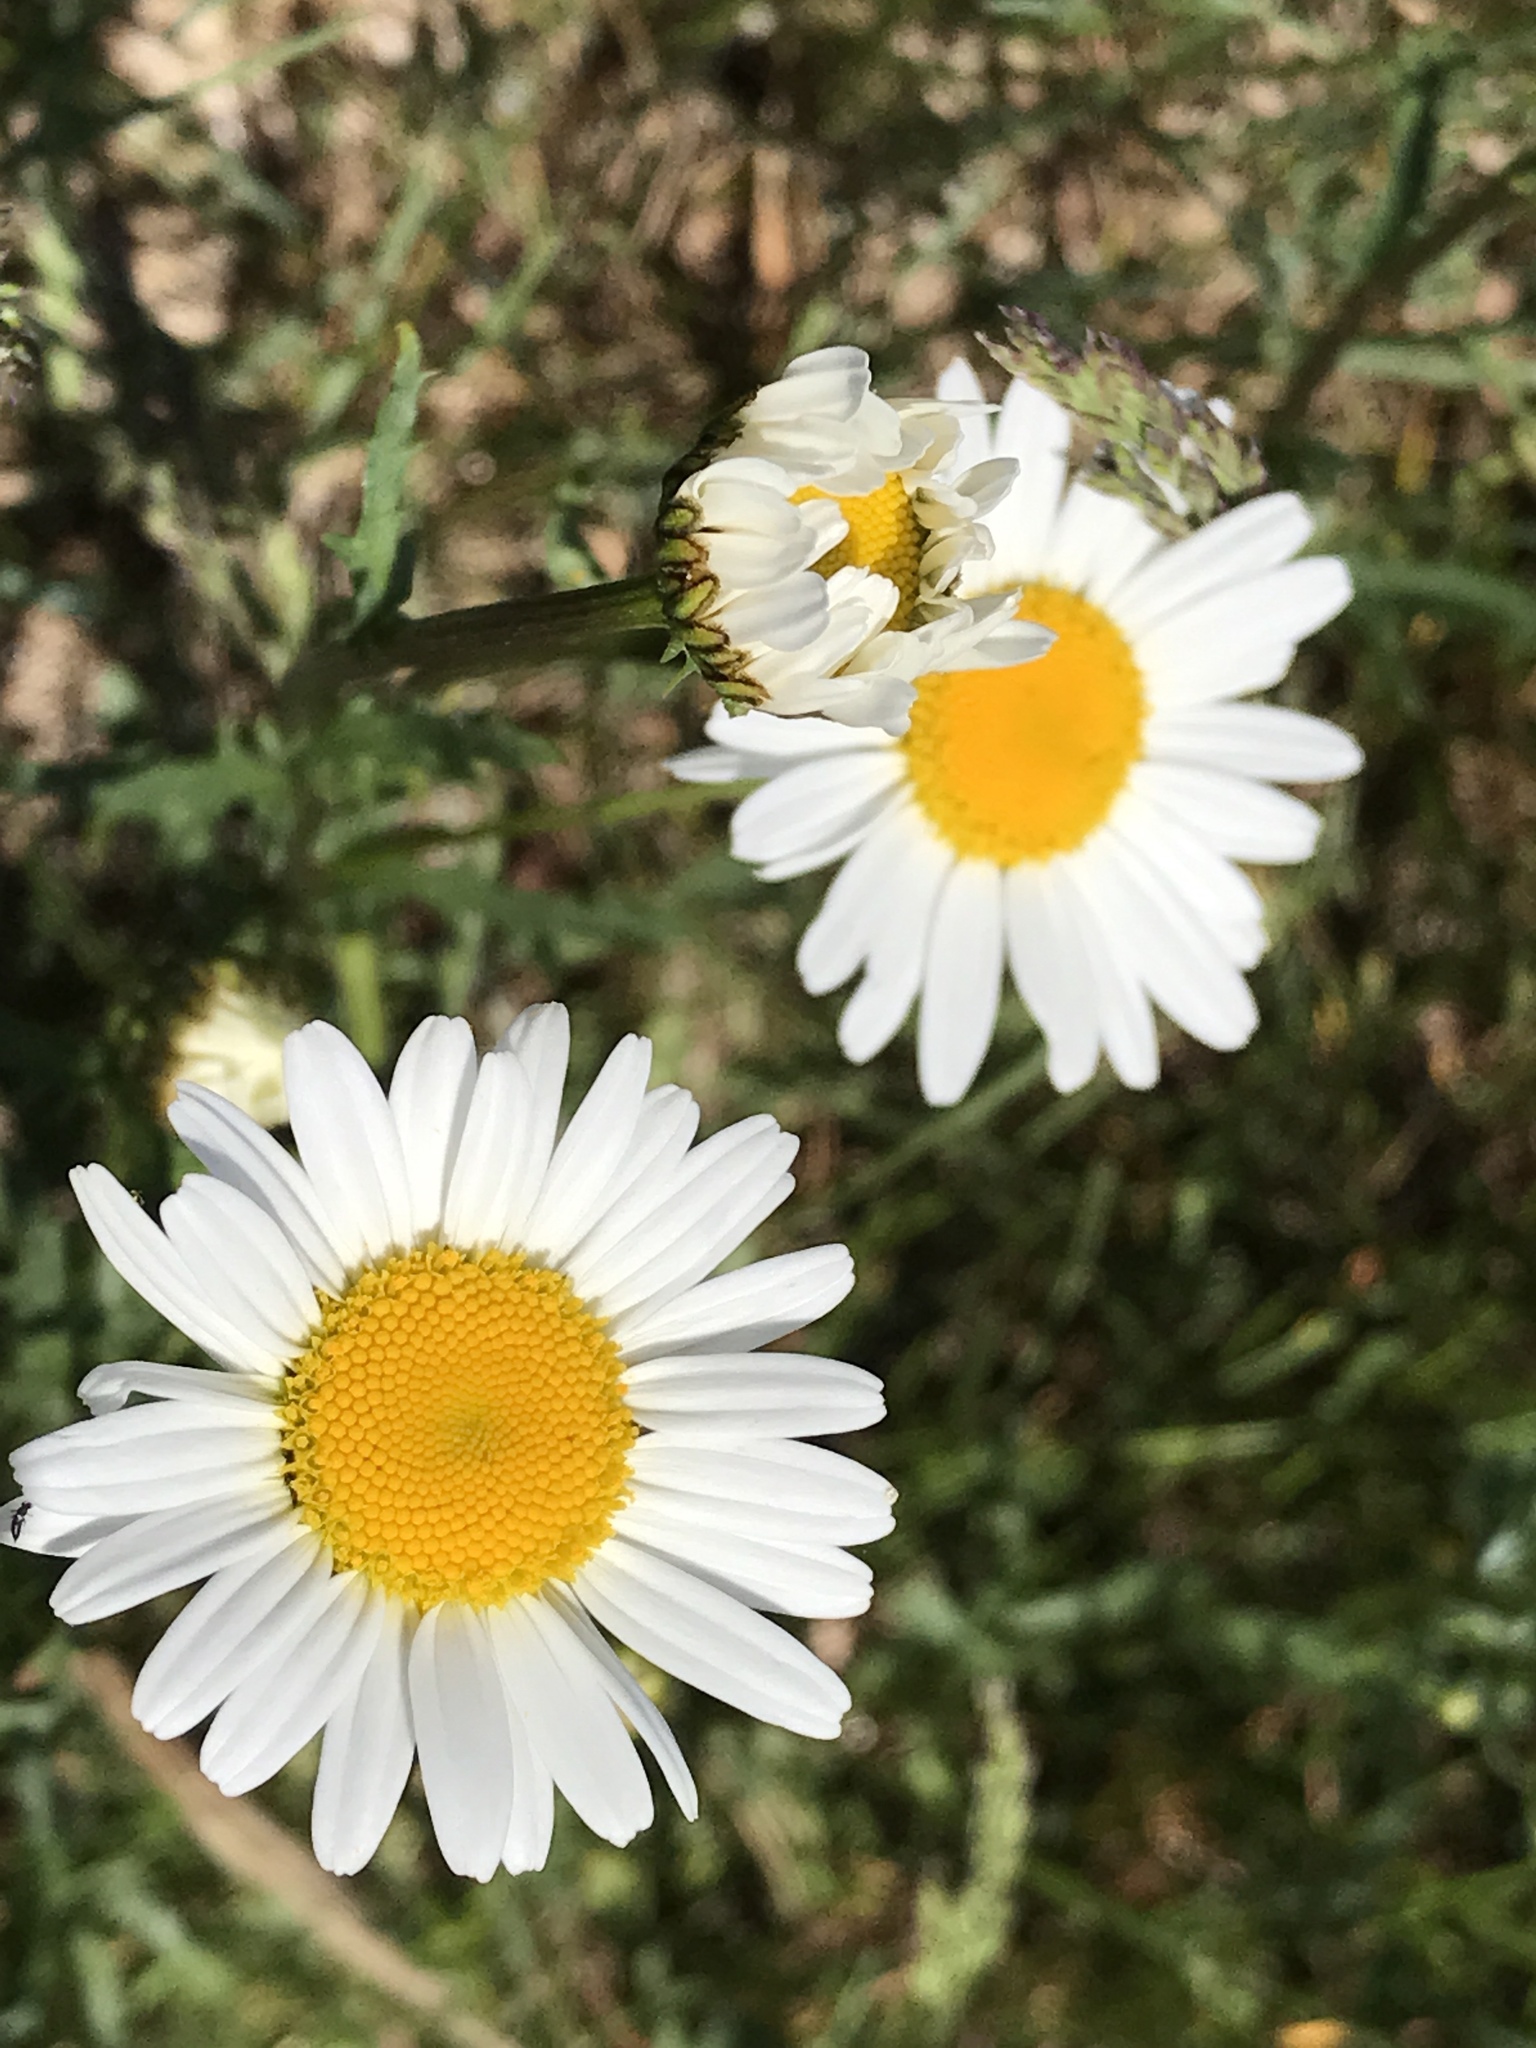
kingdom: Plantae
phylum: Tracheophyta
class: Magnoliopsida
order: Asterales
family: Asteraceae
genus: Leucanthemum
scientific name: Leucanthemum vulgare
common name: Oxeye daisy
